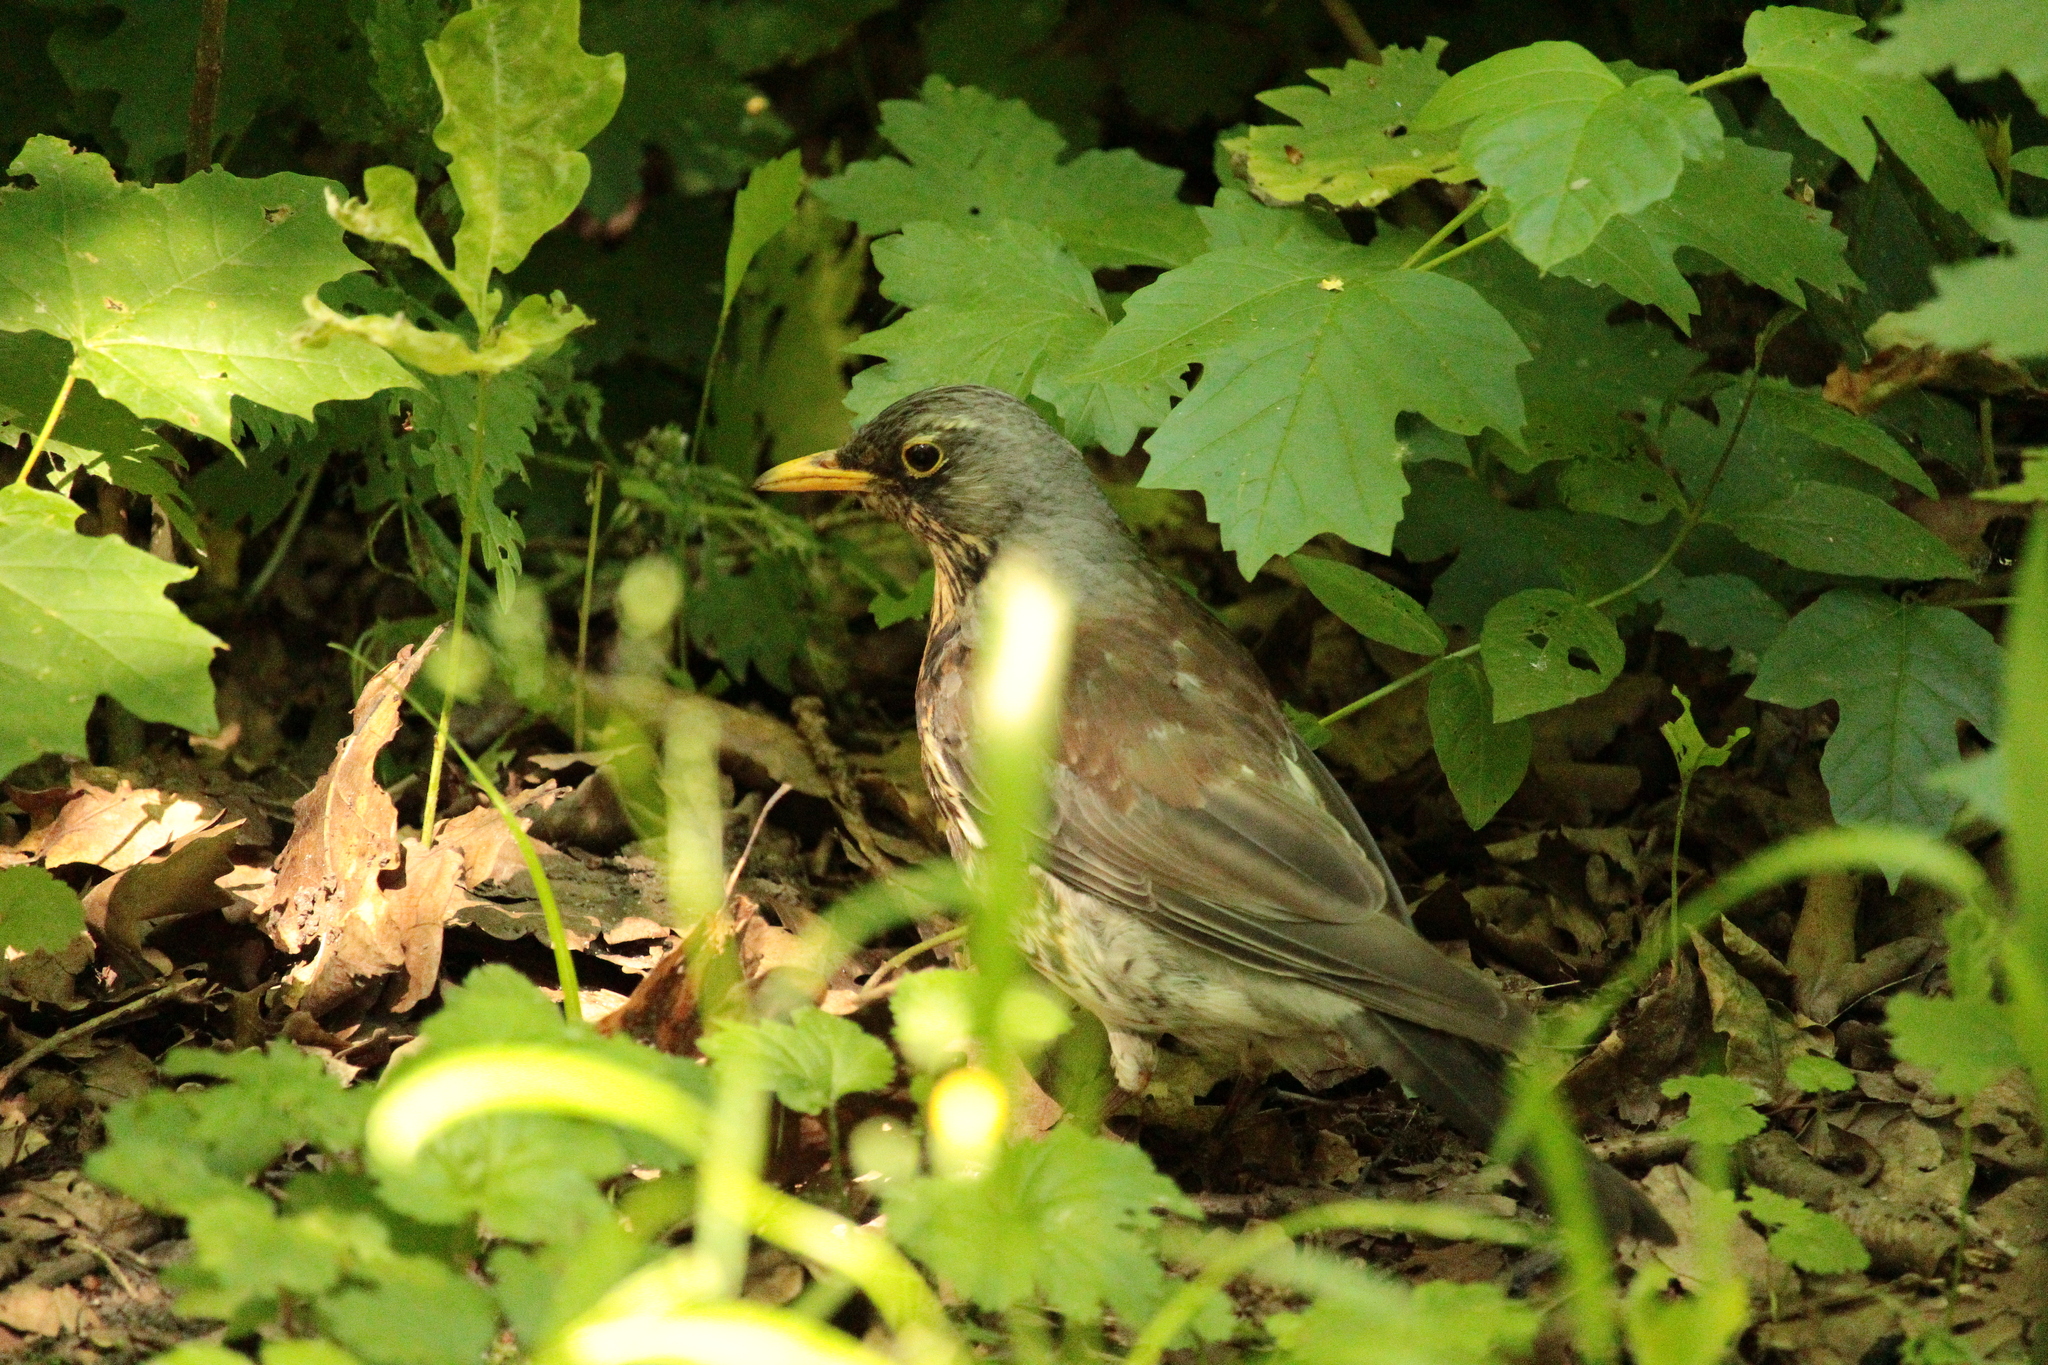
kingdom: Animalia
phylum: Chordata
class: Aves
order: Passeriformes
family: Turdidae
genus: Turdus
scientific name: Turdus pilaris
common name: Fieldfare
